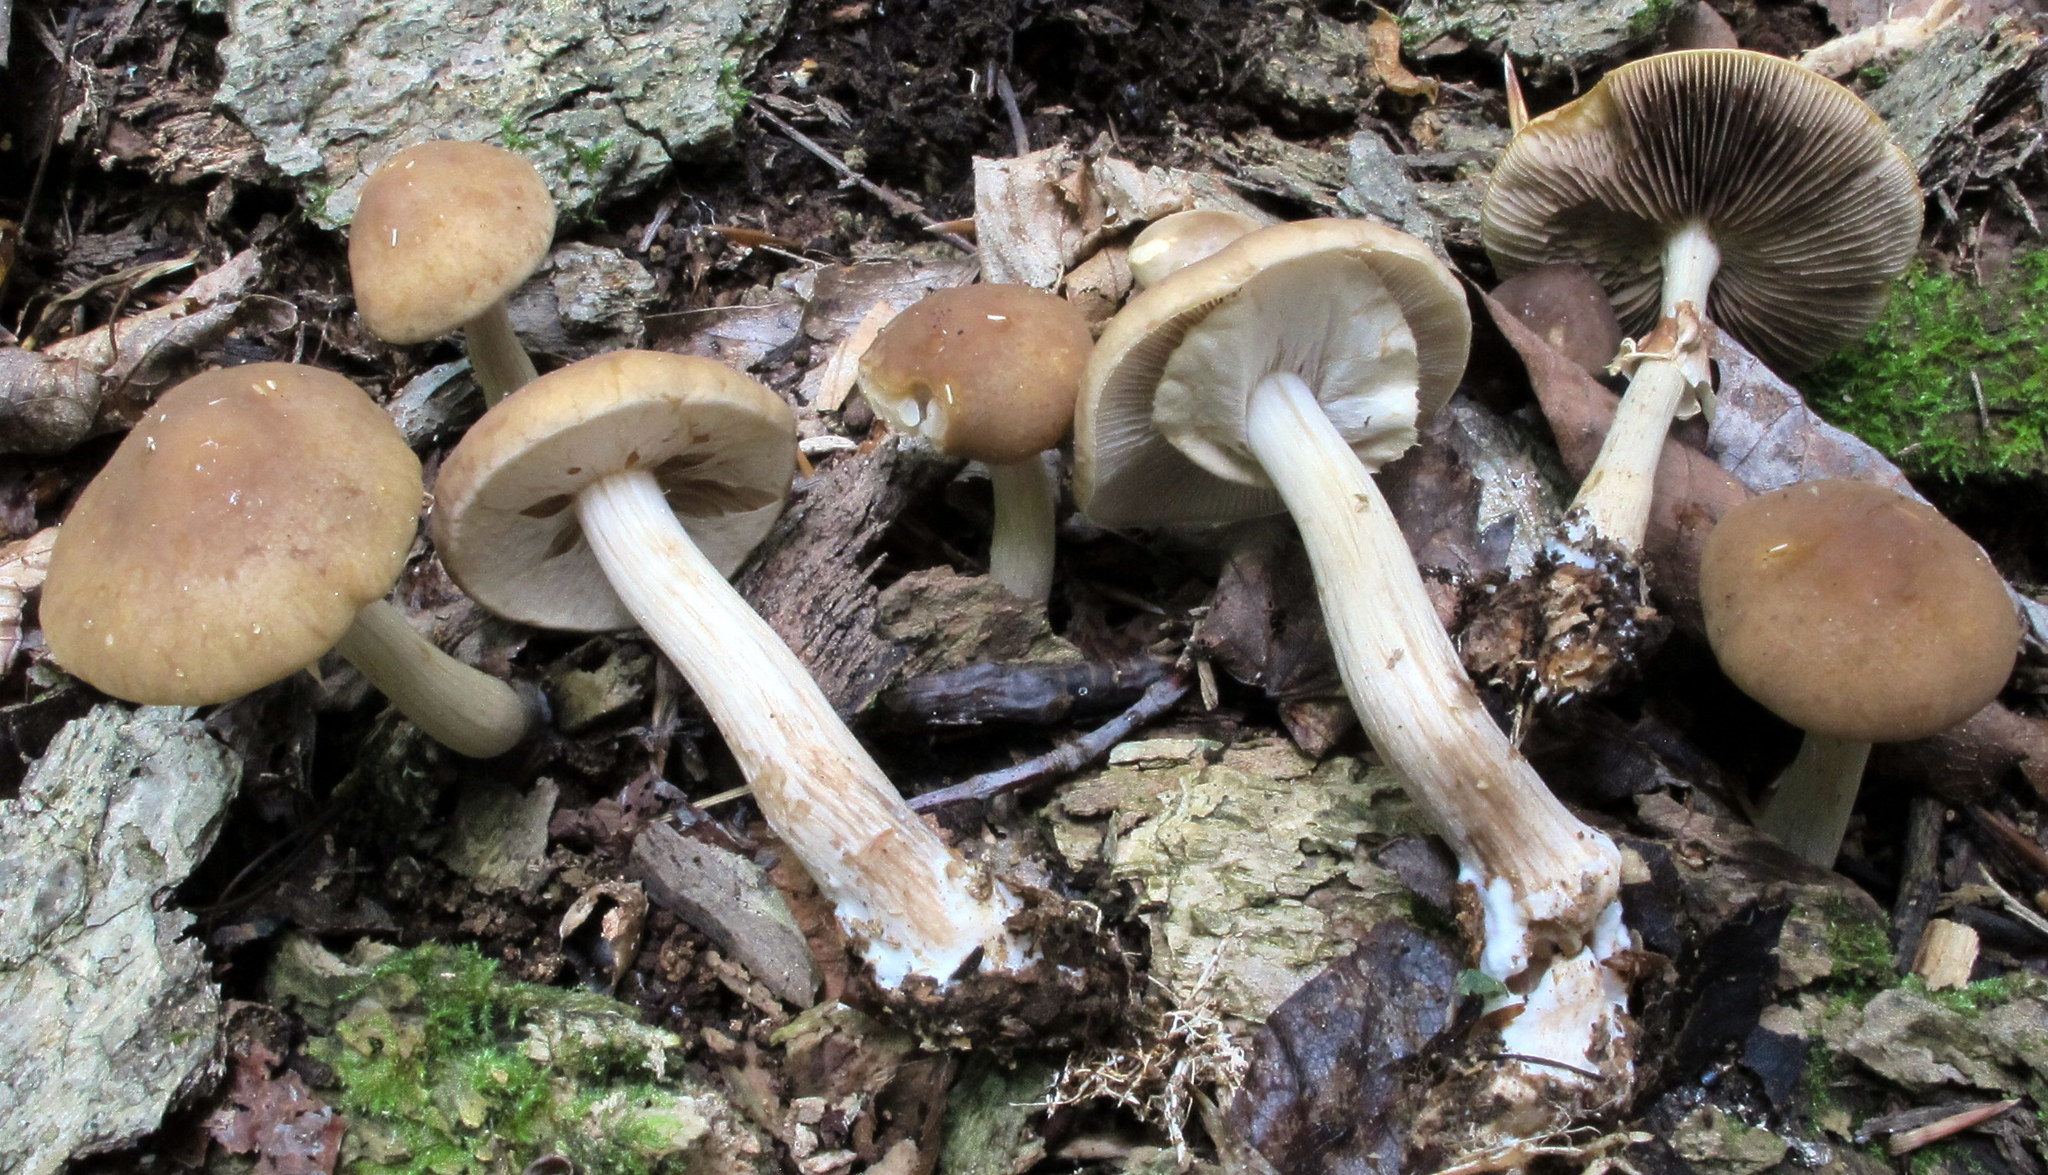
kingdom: Fungi
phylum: Basidiomycota
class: Agaricomycetes
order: Agaricales
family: Strophariaceae
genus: Agrocybe
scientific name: Agrocybe acericola
